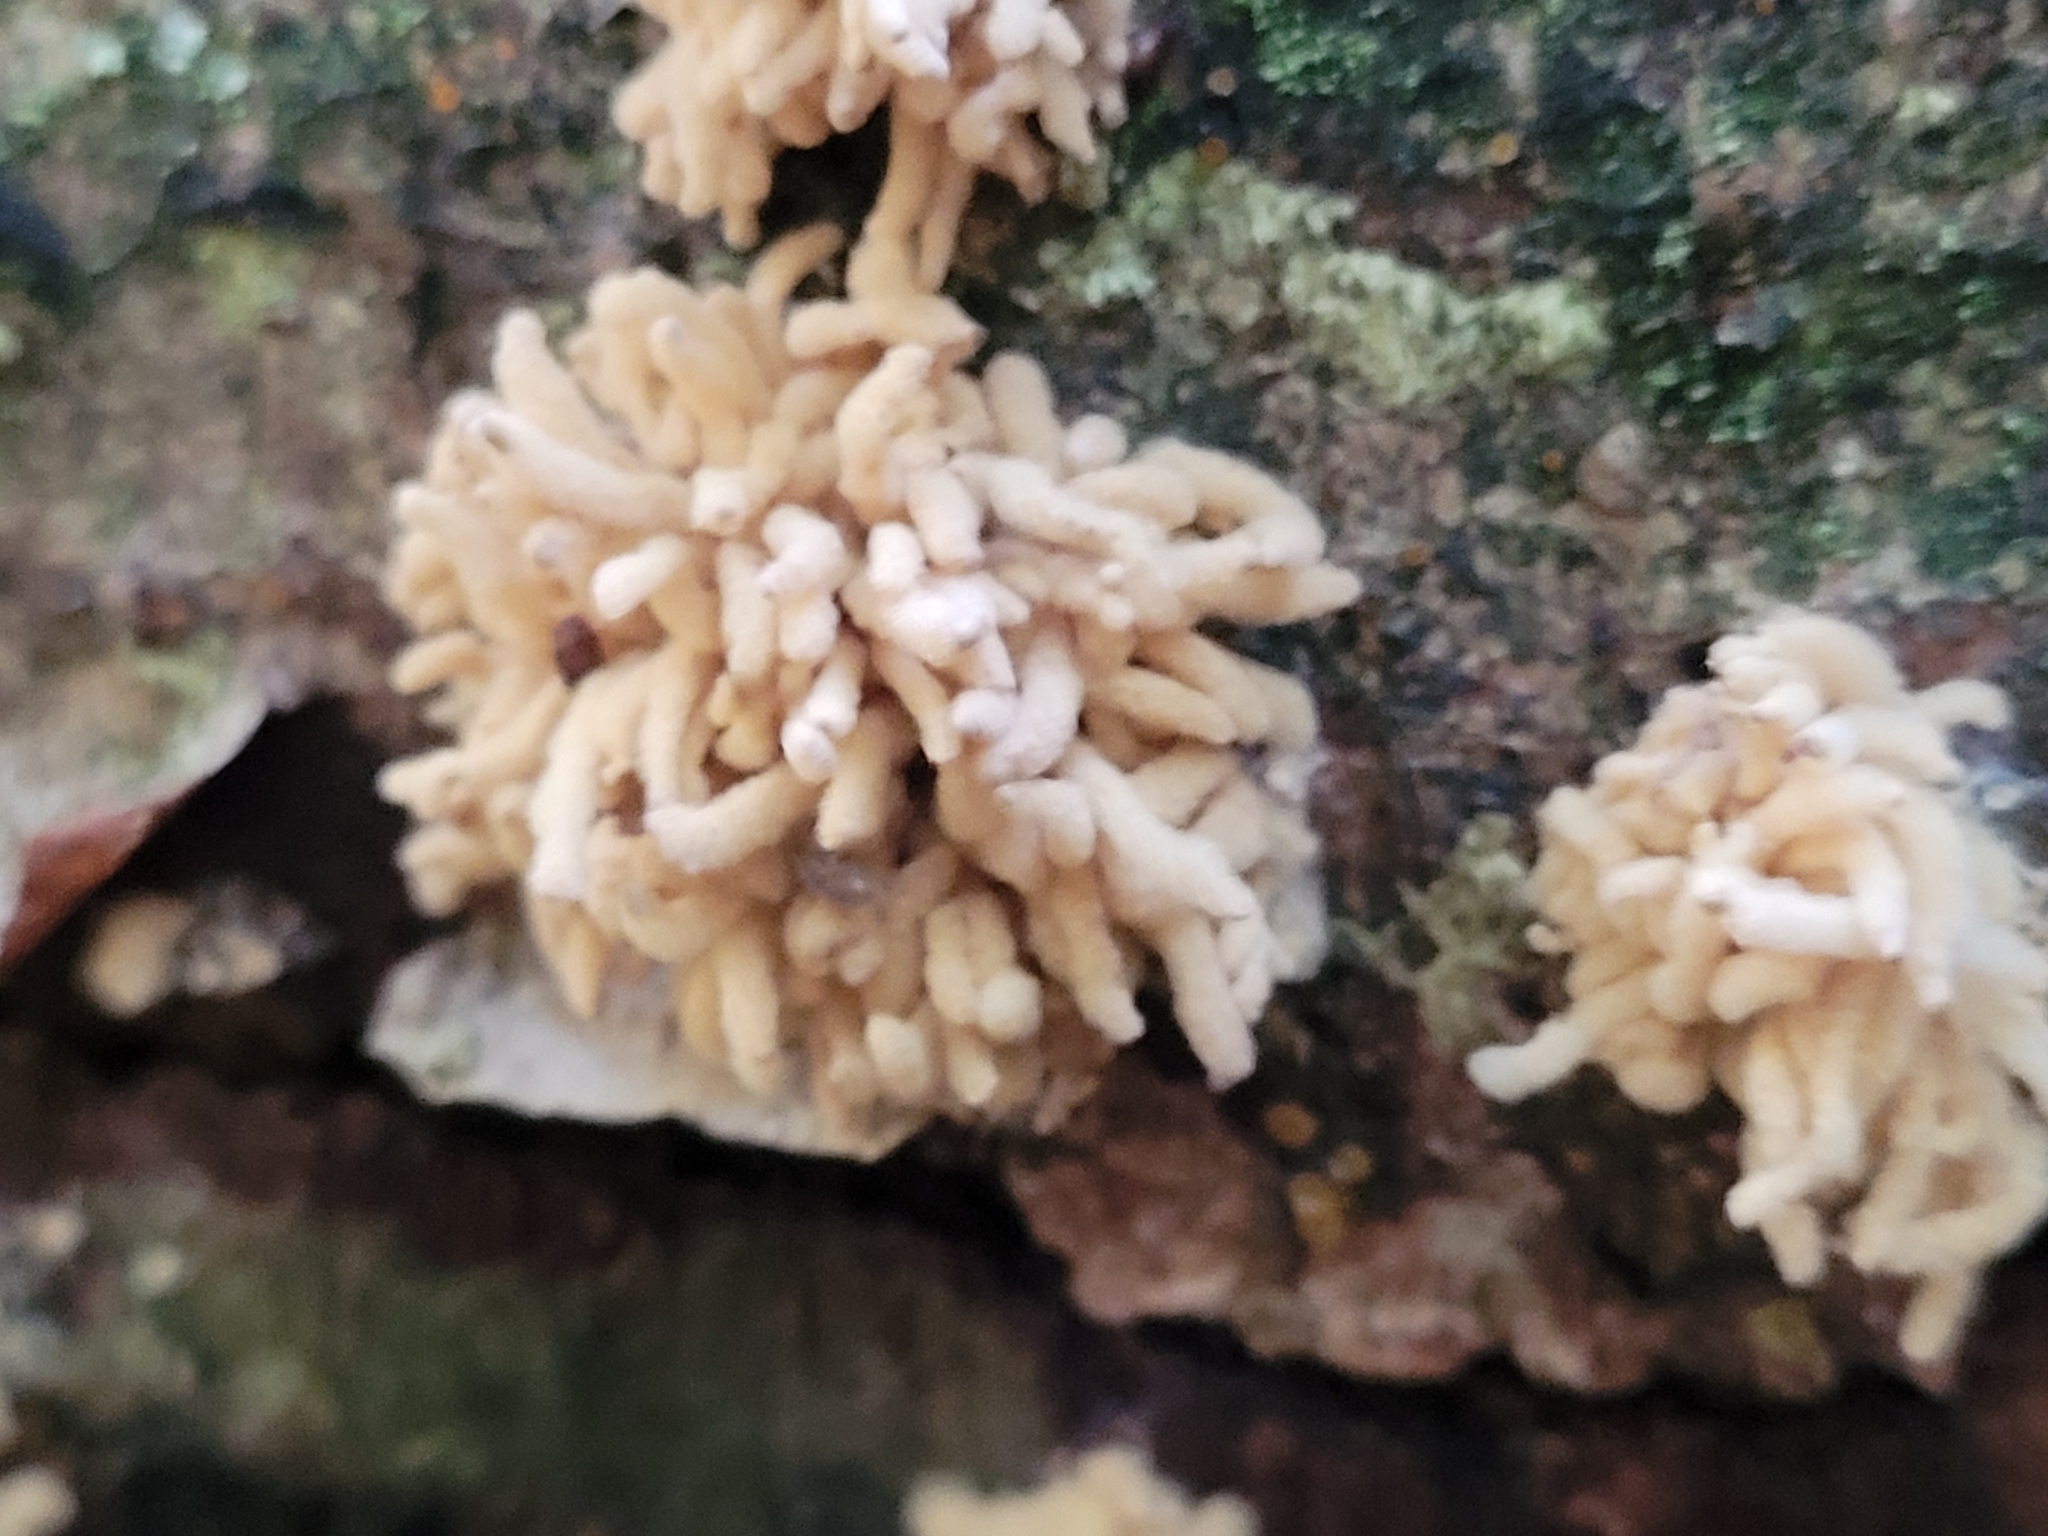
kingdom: Protozoa
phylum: Mycetozoa
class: Myxomycetes
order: Trichiales
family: Arcyriaceae
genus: Arcyria
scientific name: Arcyria obvelata
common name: Yellow carnival candy slime
